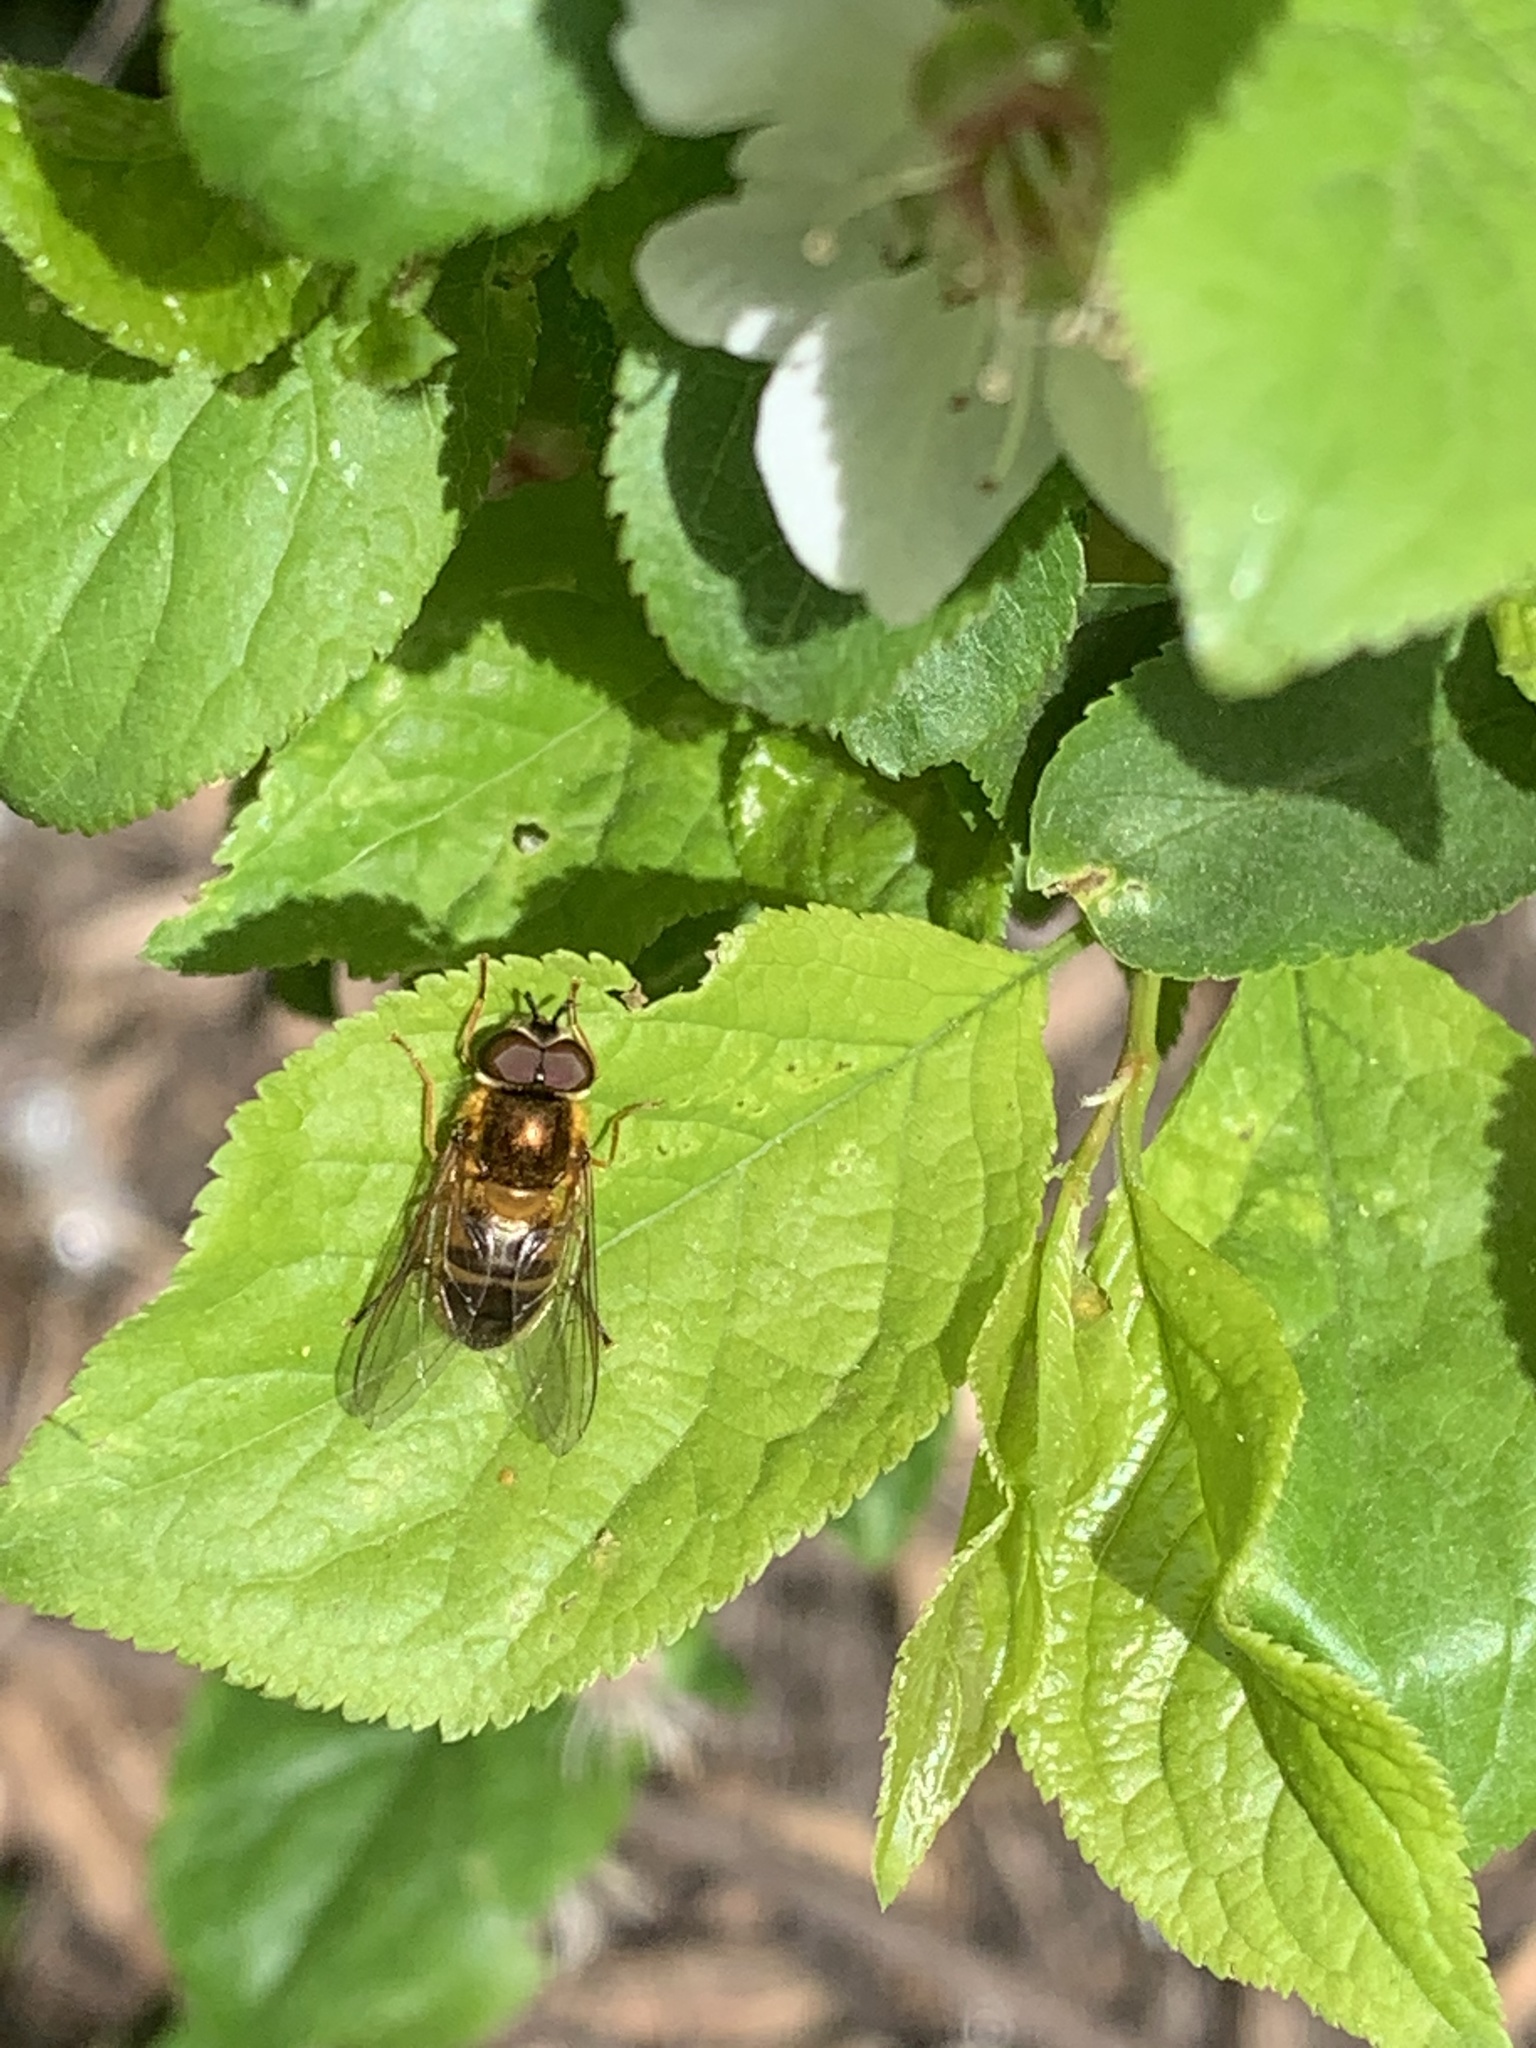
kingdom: Animalia
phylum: Arthropoda
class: Insecta
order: Diptera
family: Syrphidae
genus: Epistrophe
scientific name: Epistrophe eligans
